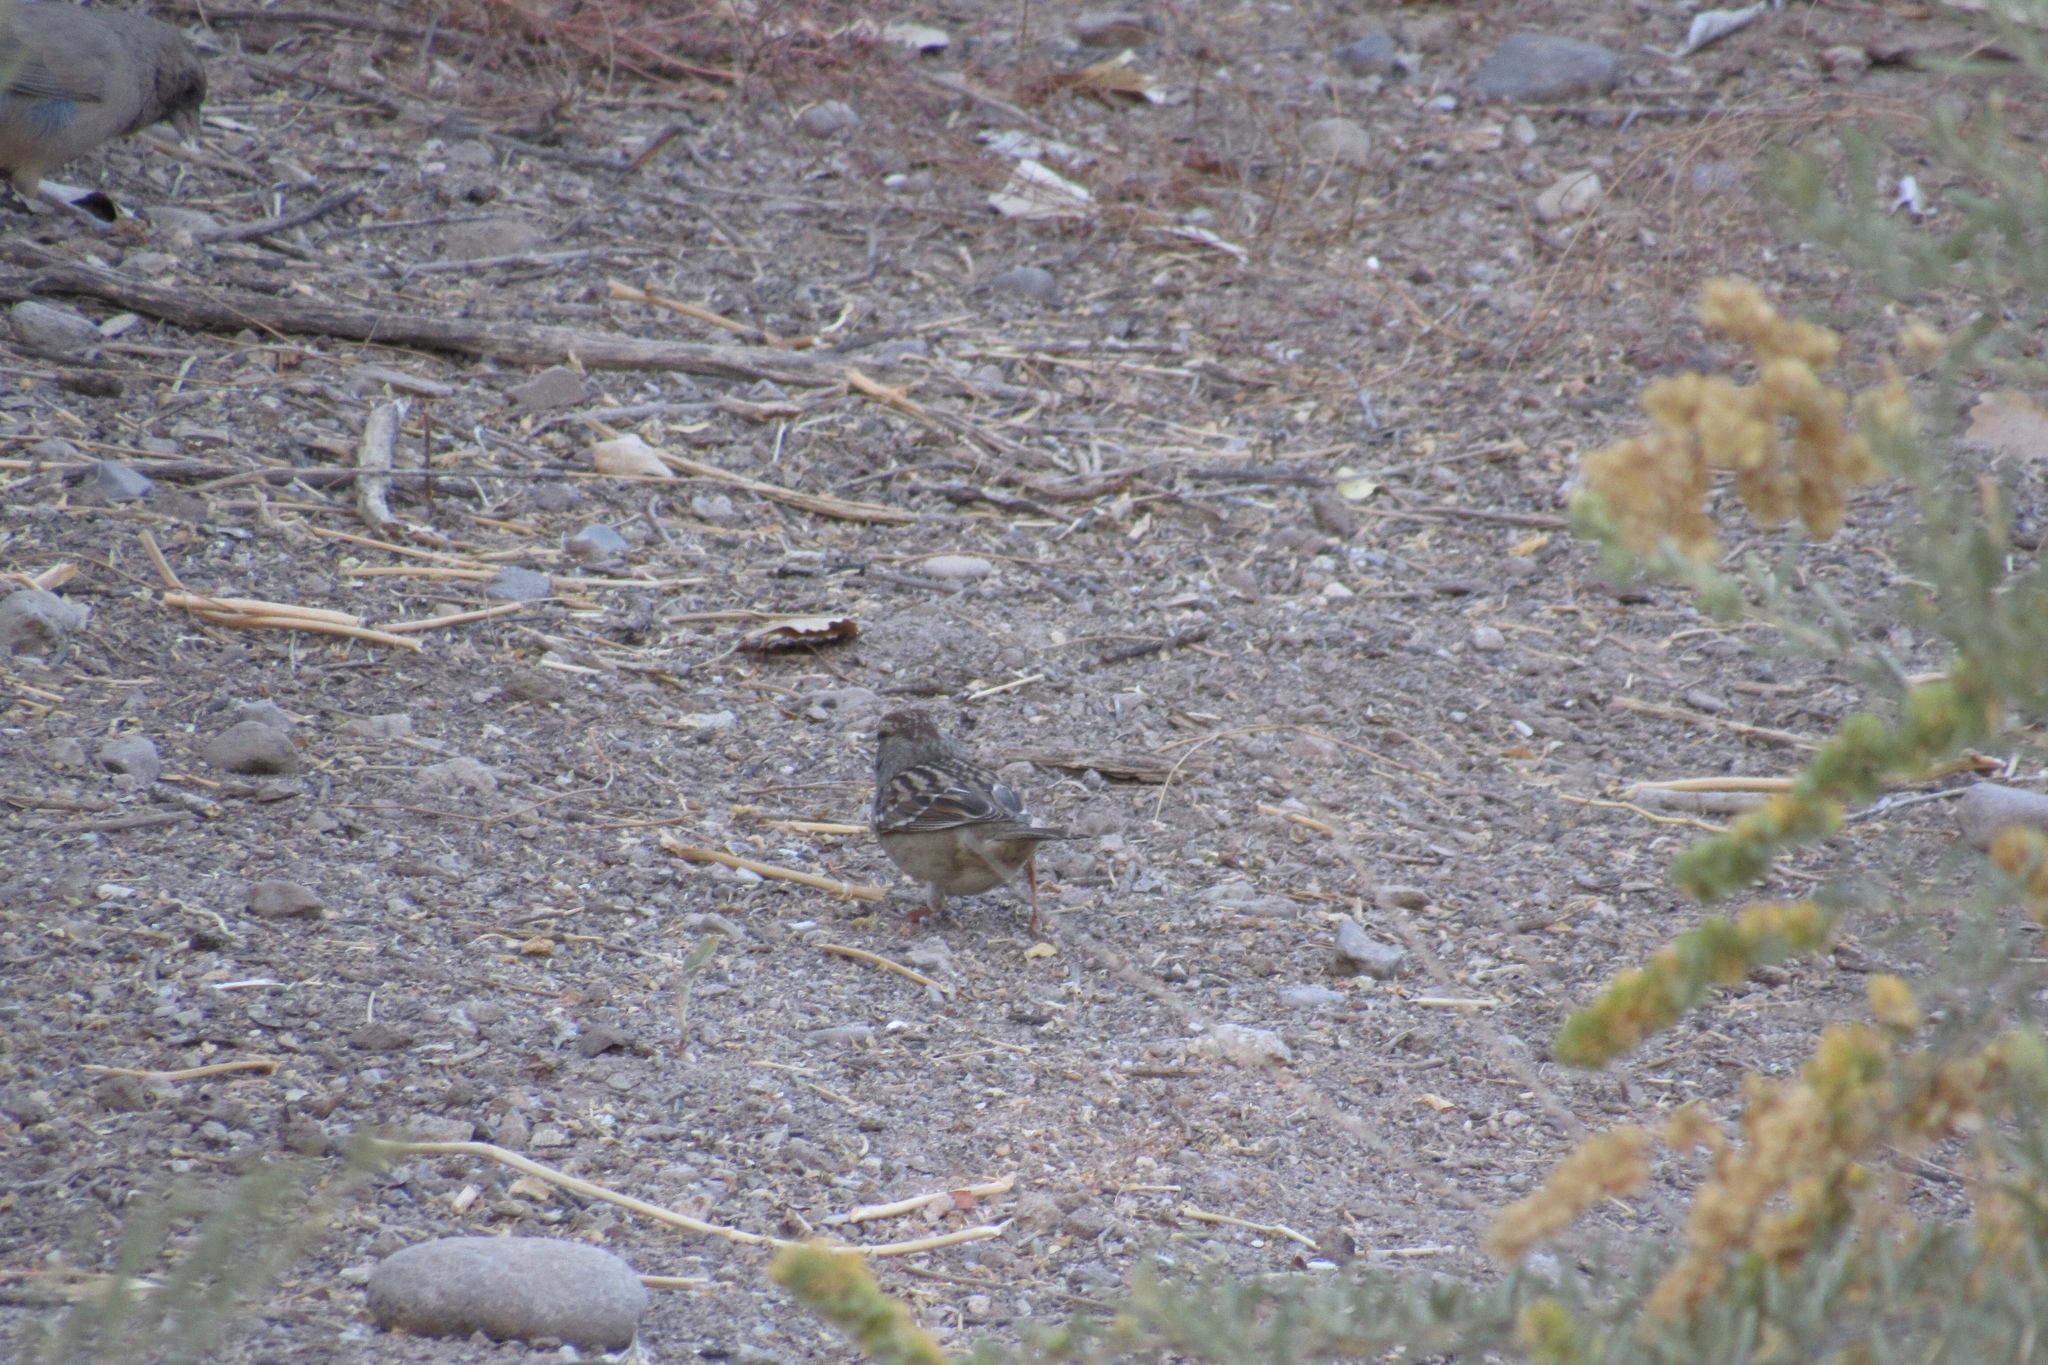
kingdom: Animalia
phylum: Chordata
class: Aves
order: Passeriformes
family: Passerellidae
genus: Zonotrichia
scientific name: Zonotrichia leucophrys
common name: White-crowned sparrow
